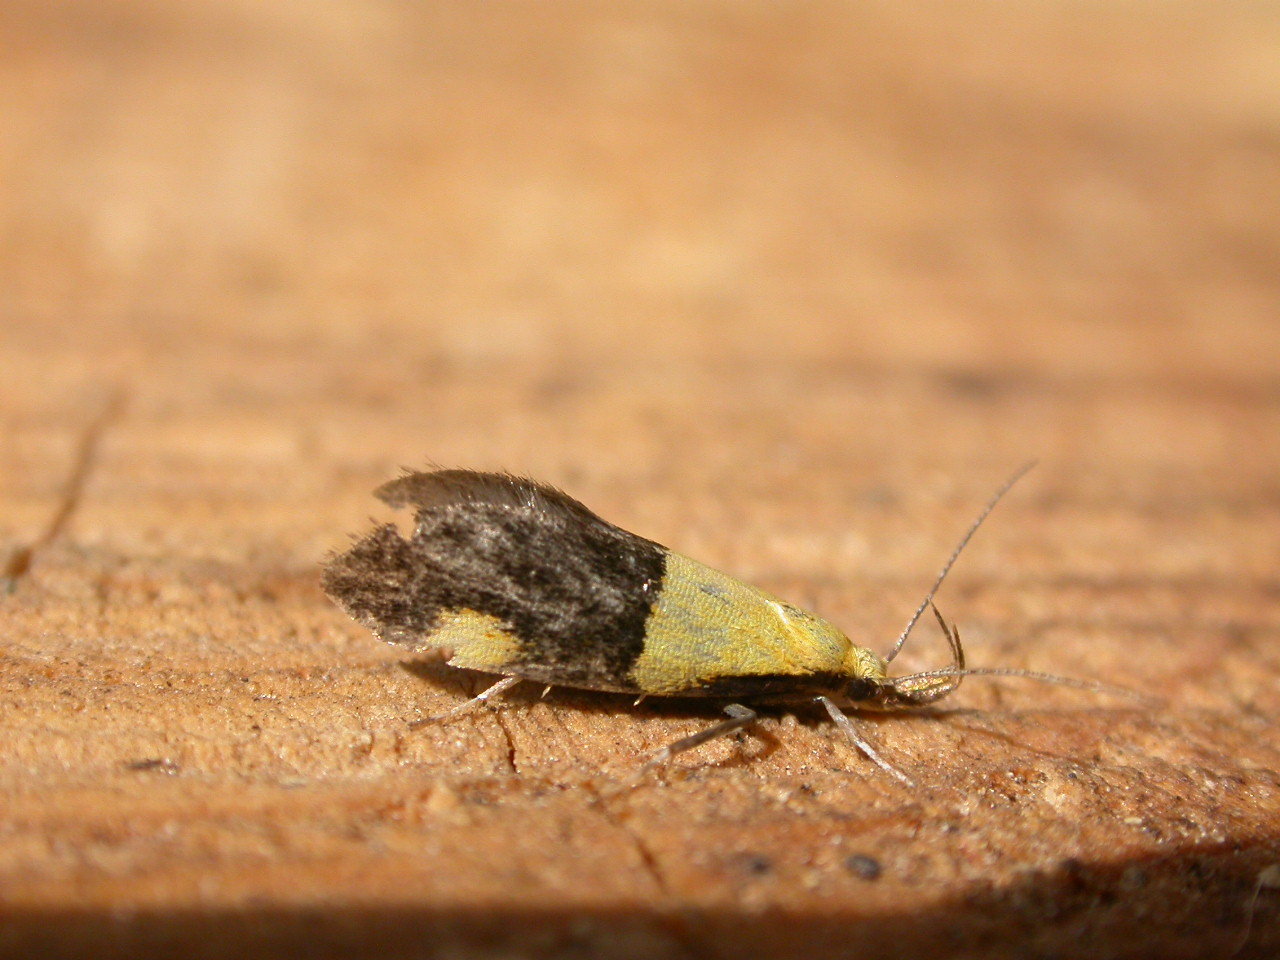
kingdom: Animalia
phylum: Arthropoda
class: Insecta
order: Lepidoptera
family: Oecophoridae
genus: Oecophora
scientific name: Oecophora bractella
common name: Gold-base tubic
